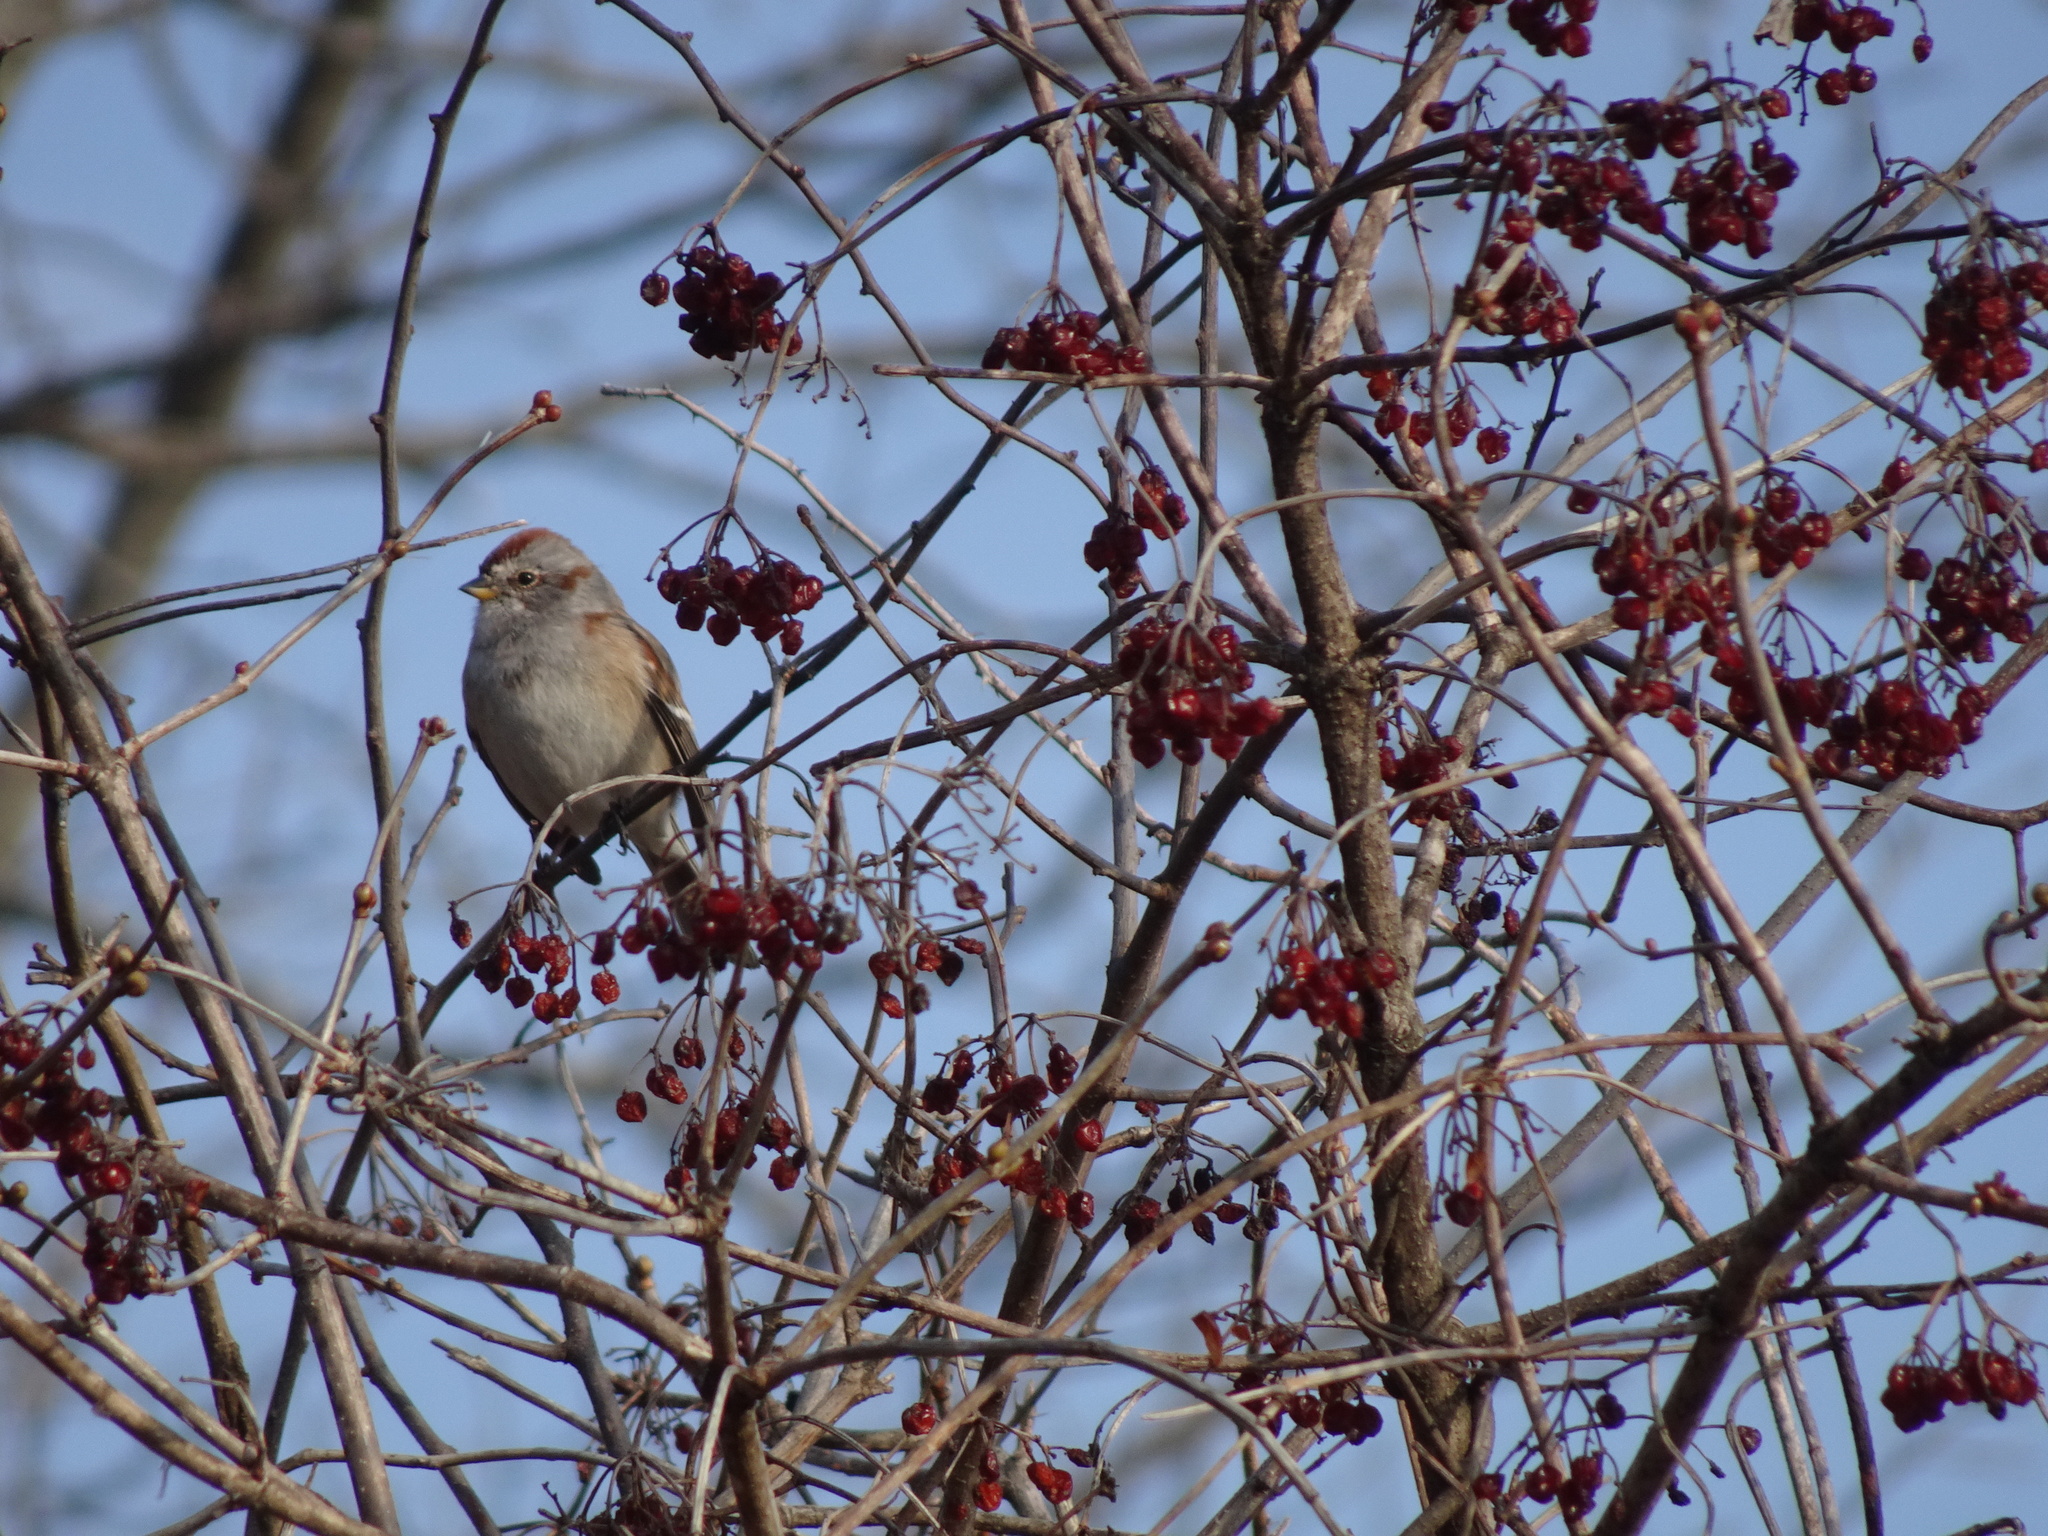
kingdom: Animalia
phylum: Chordata
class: Aves
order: Passeriformes
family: Passerellidae
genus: Spizelloides
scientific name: Spizelloides arborea
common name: American tree sparrow
